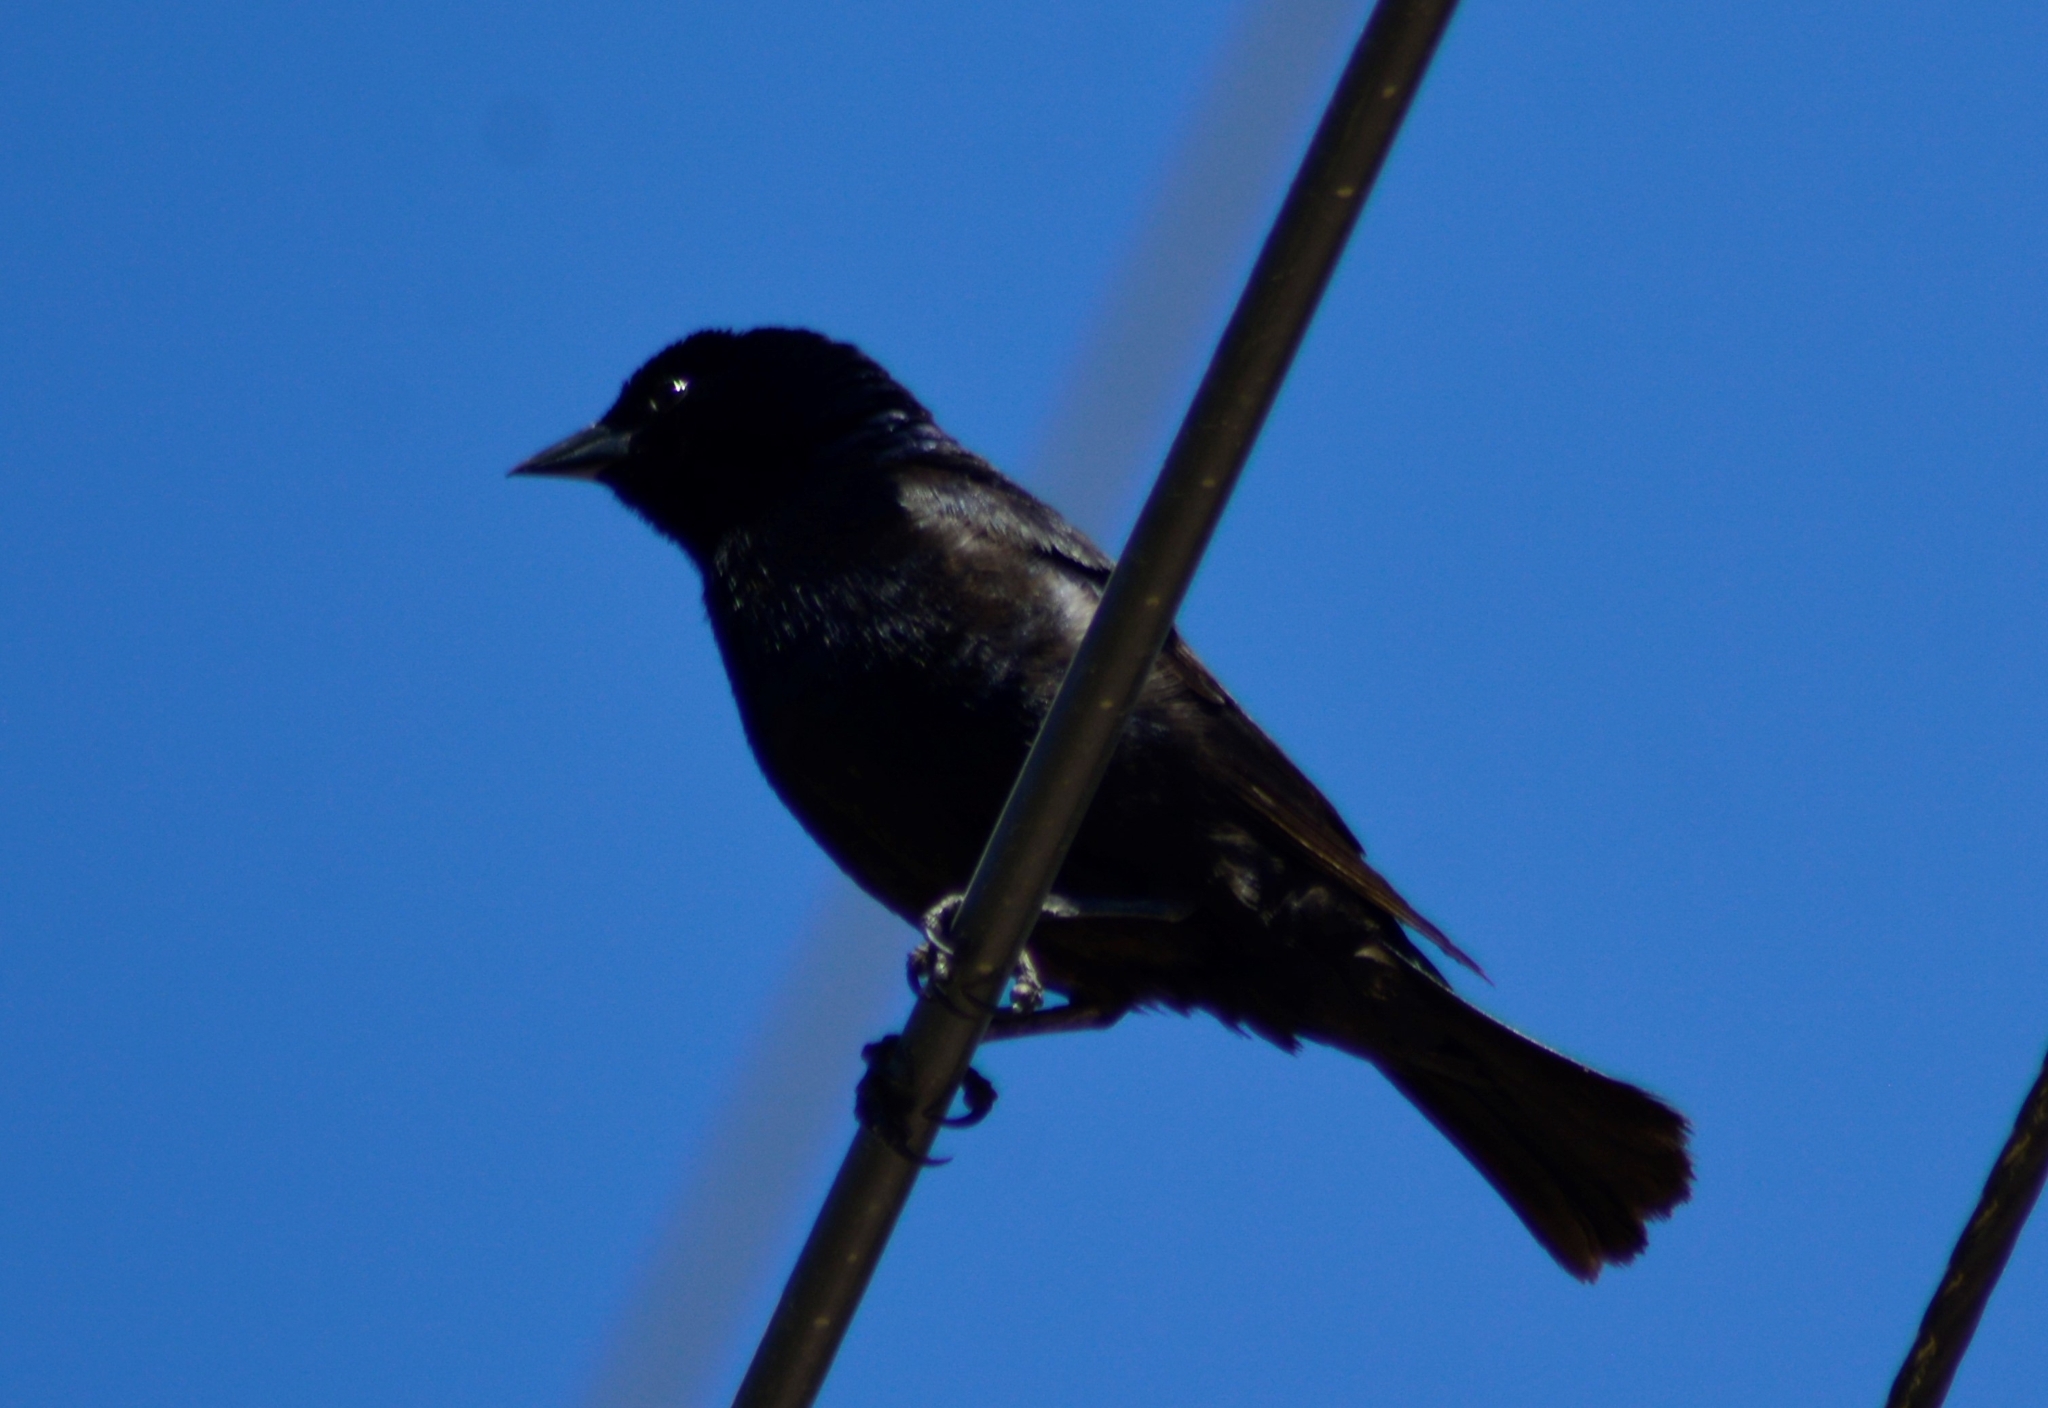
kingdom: Animalia
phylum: Chordata
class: Aves
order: Passeriformes
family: Icteridae
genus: Molothrus
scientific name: Molothrus bonariensis
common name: Shiny cowbird
